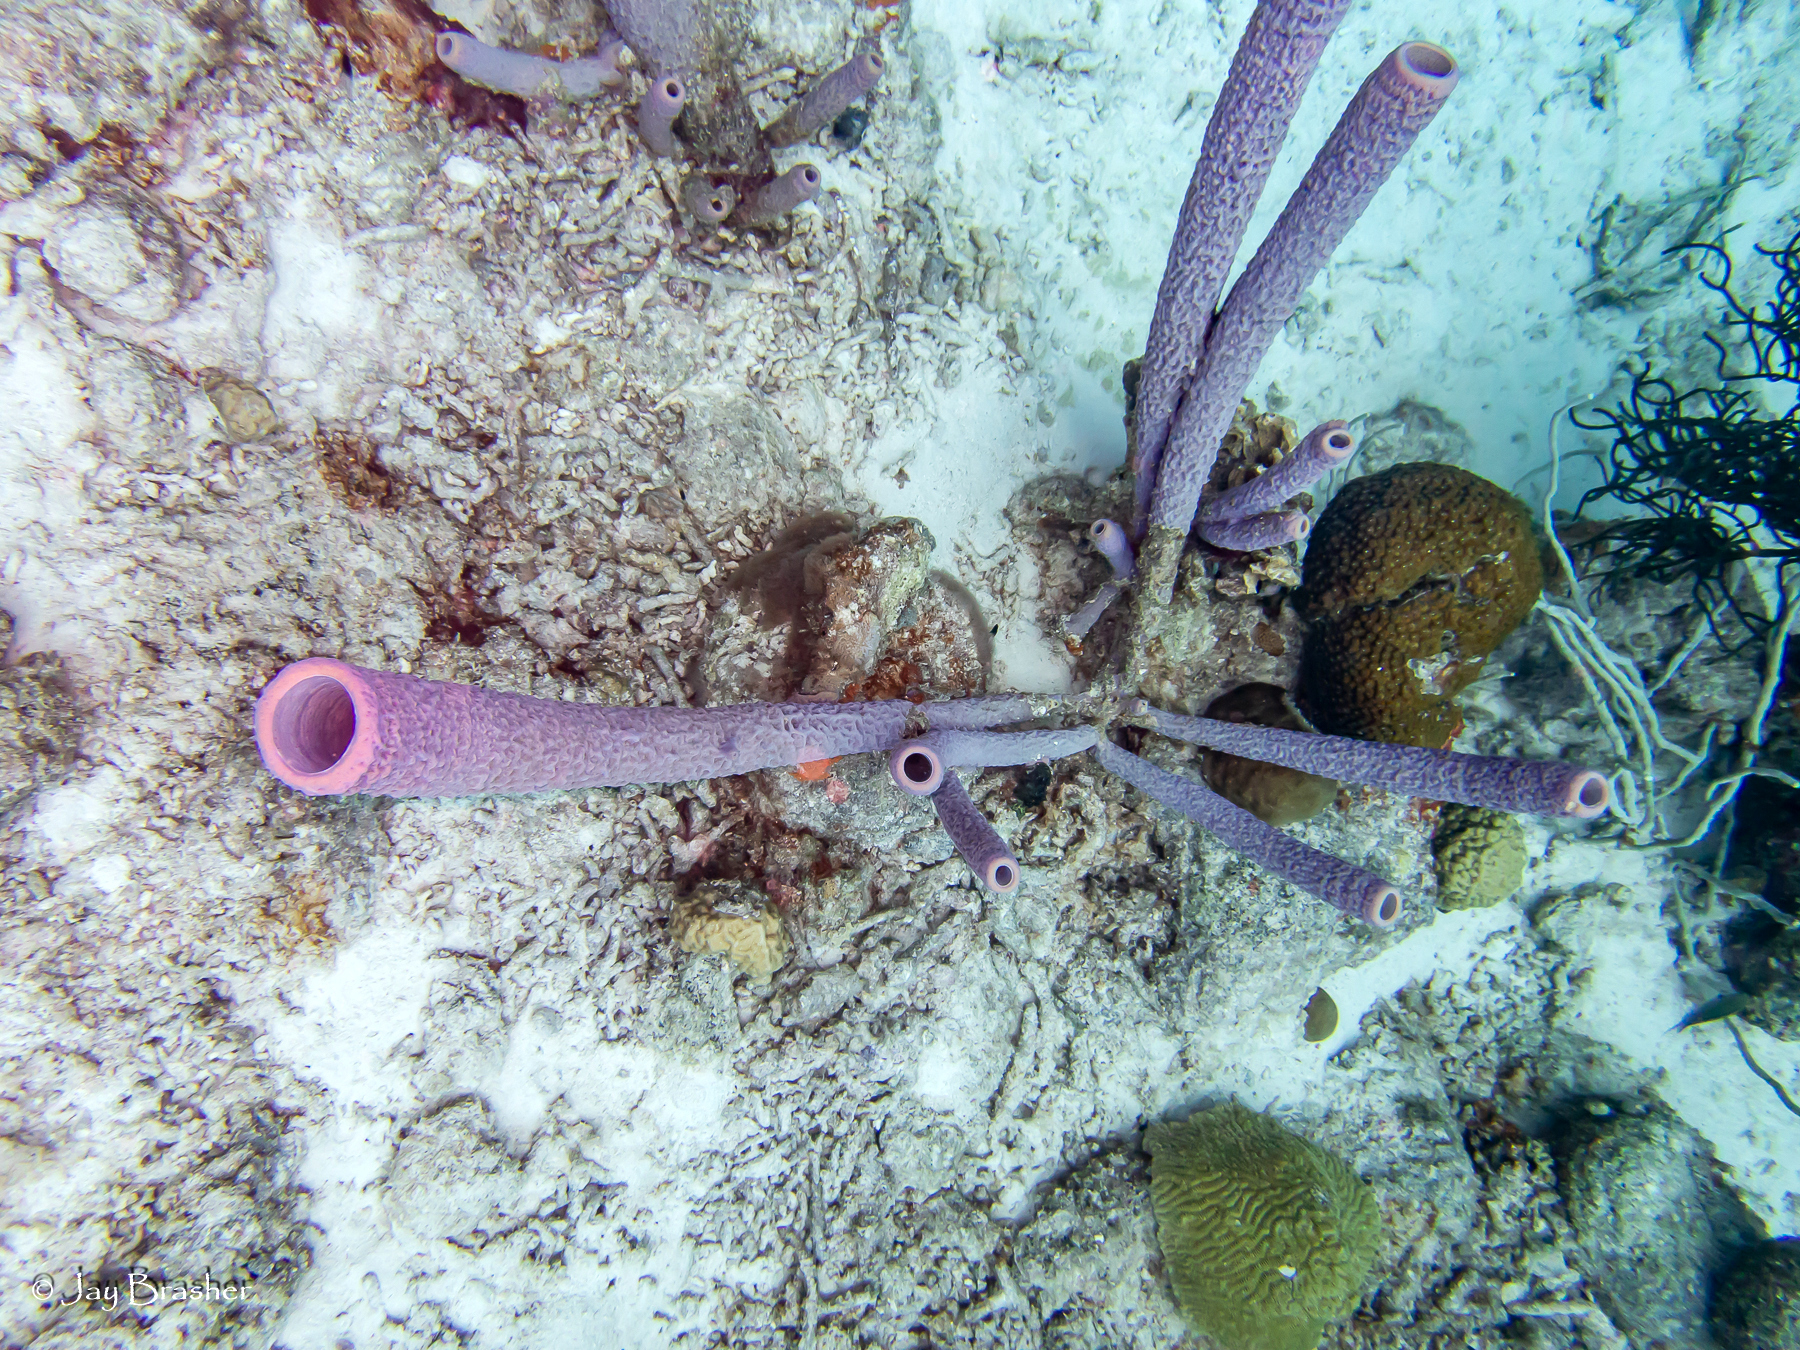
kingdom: Animalia
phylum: Porifera
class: Demospongiae
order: Verongiida
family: Aplysinidae
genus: Aplysina
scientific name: Aplysina archeri
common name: Stove-pipe sponge
